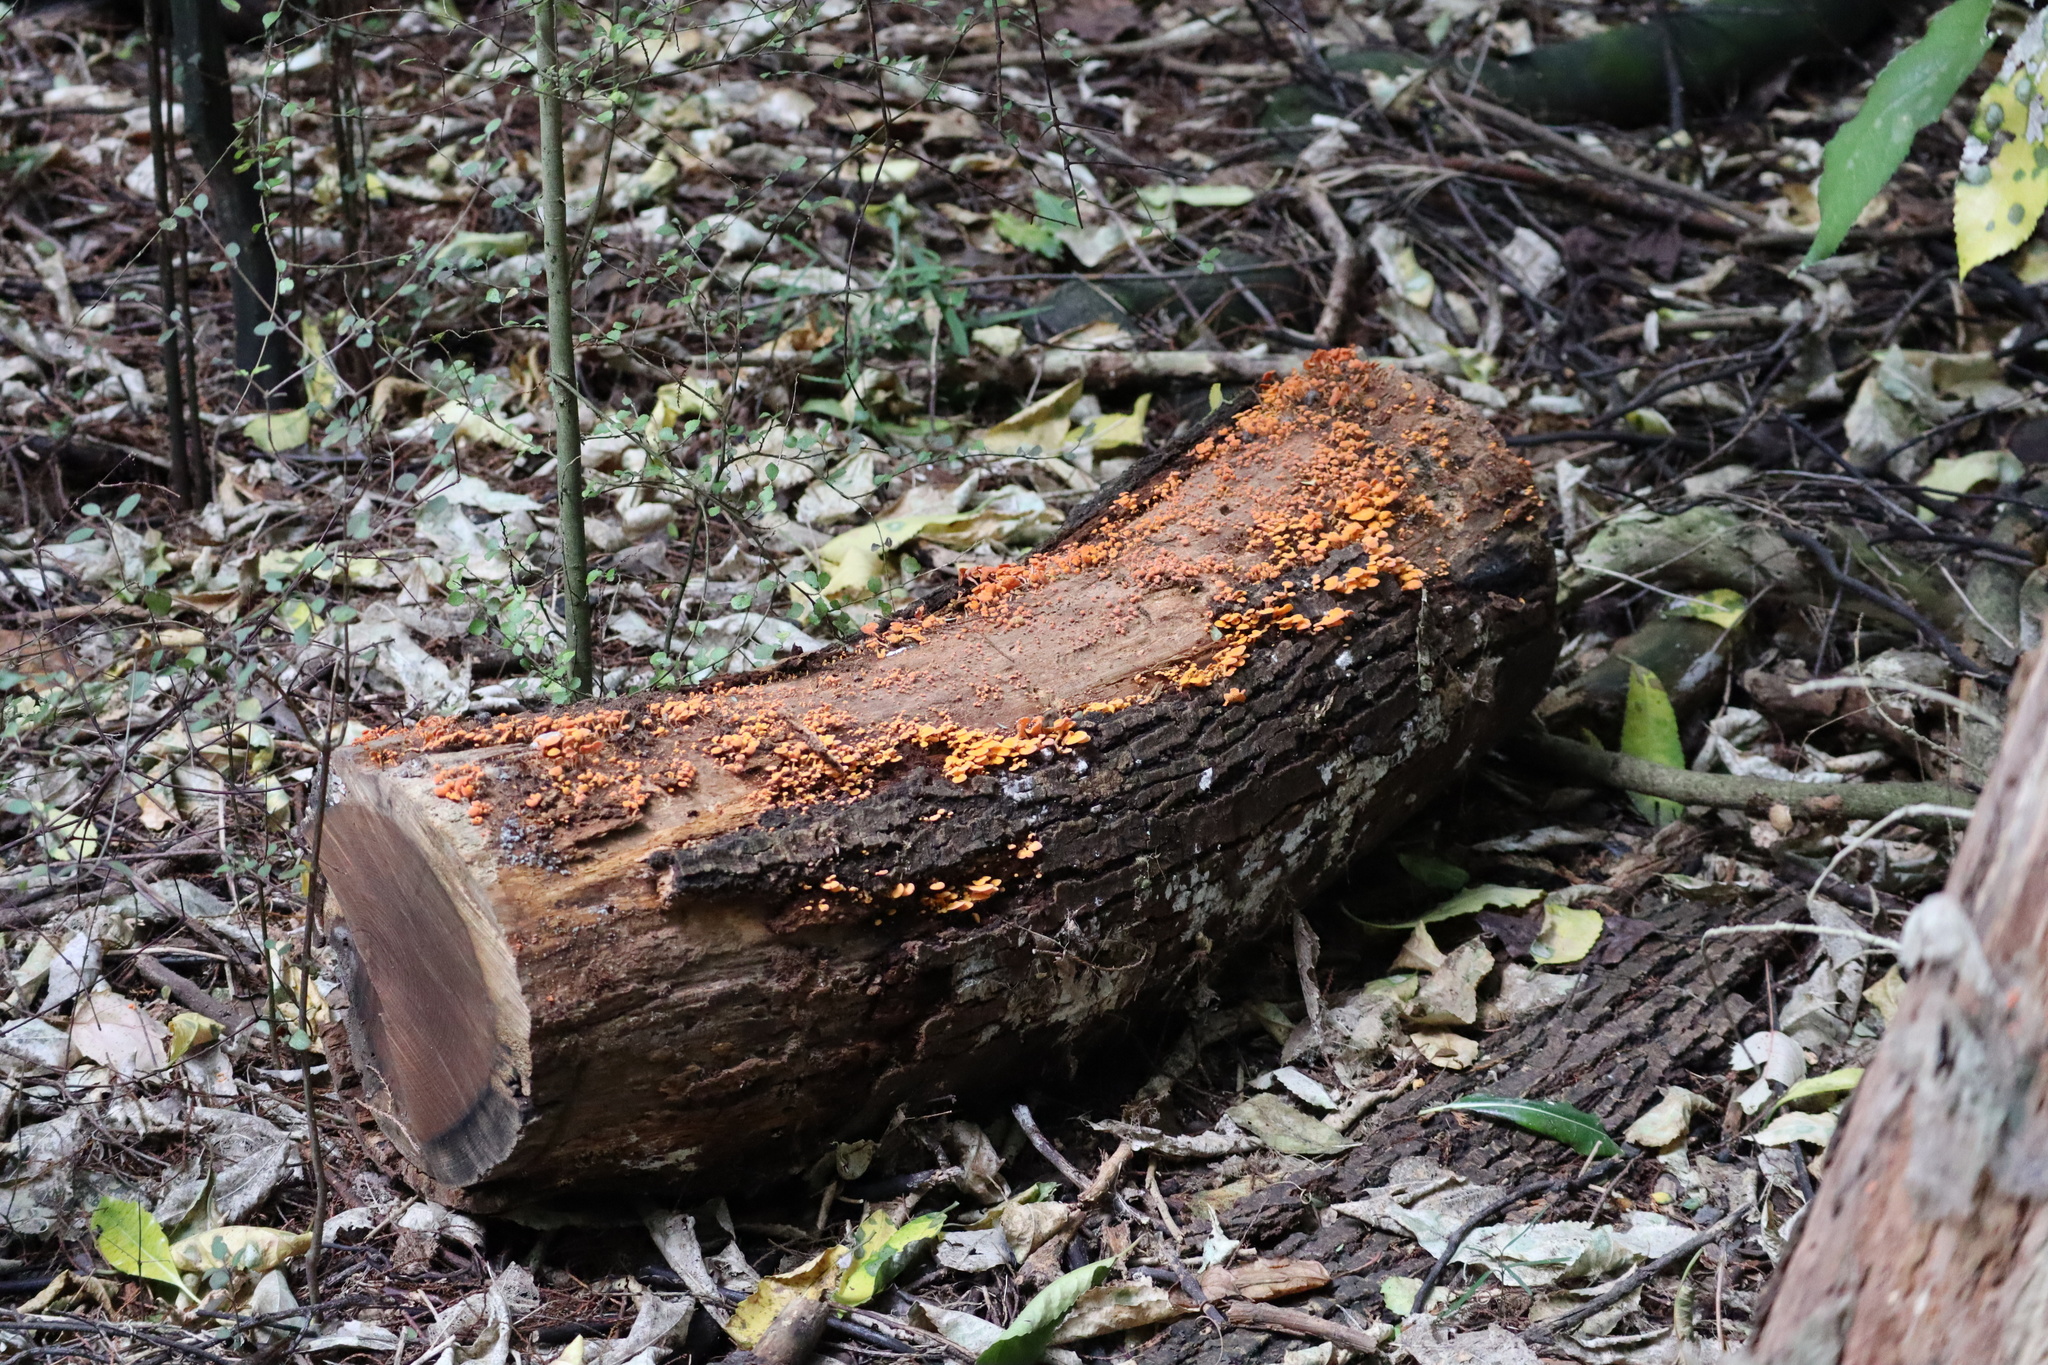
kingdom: Fungi
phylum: Basidiomycota
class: Agaricomycetes
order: Agaricales
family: Mycenaceae
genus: Favolaschia
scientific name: Favolaschia claudopus
